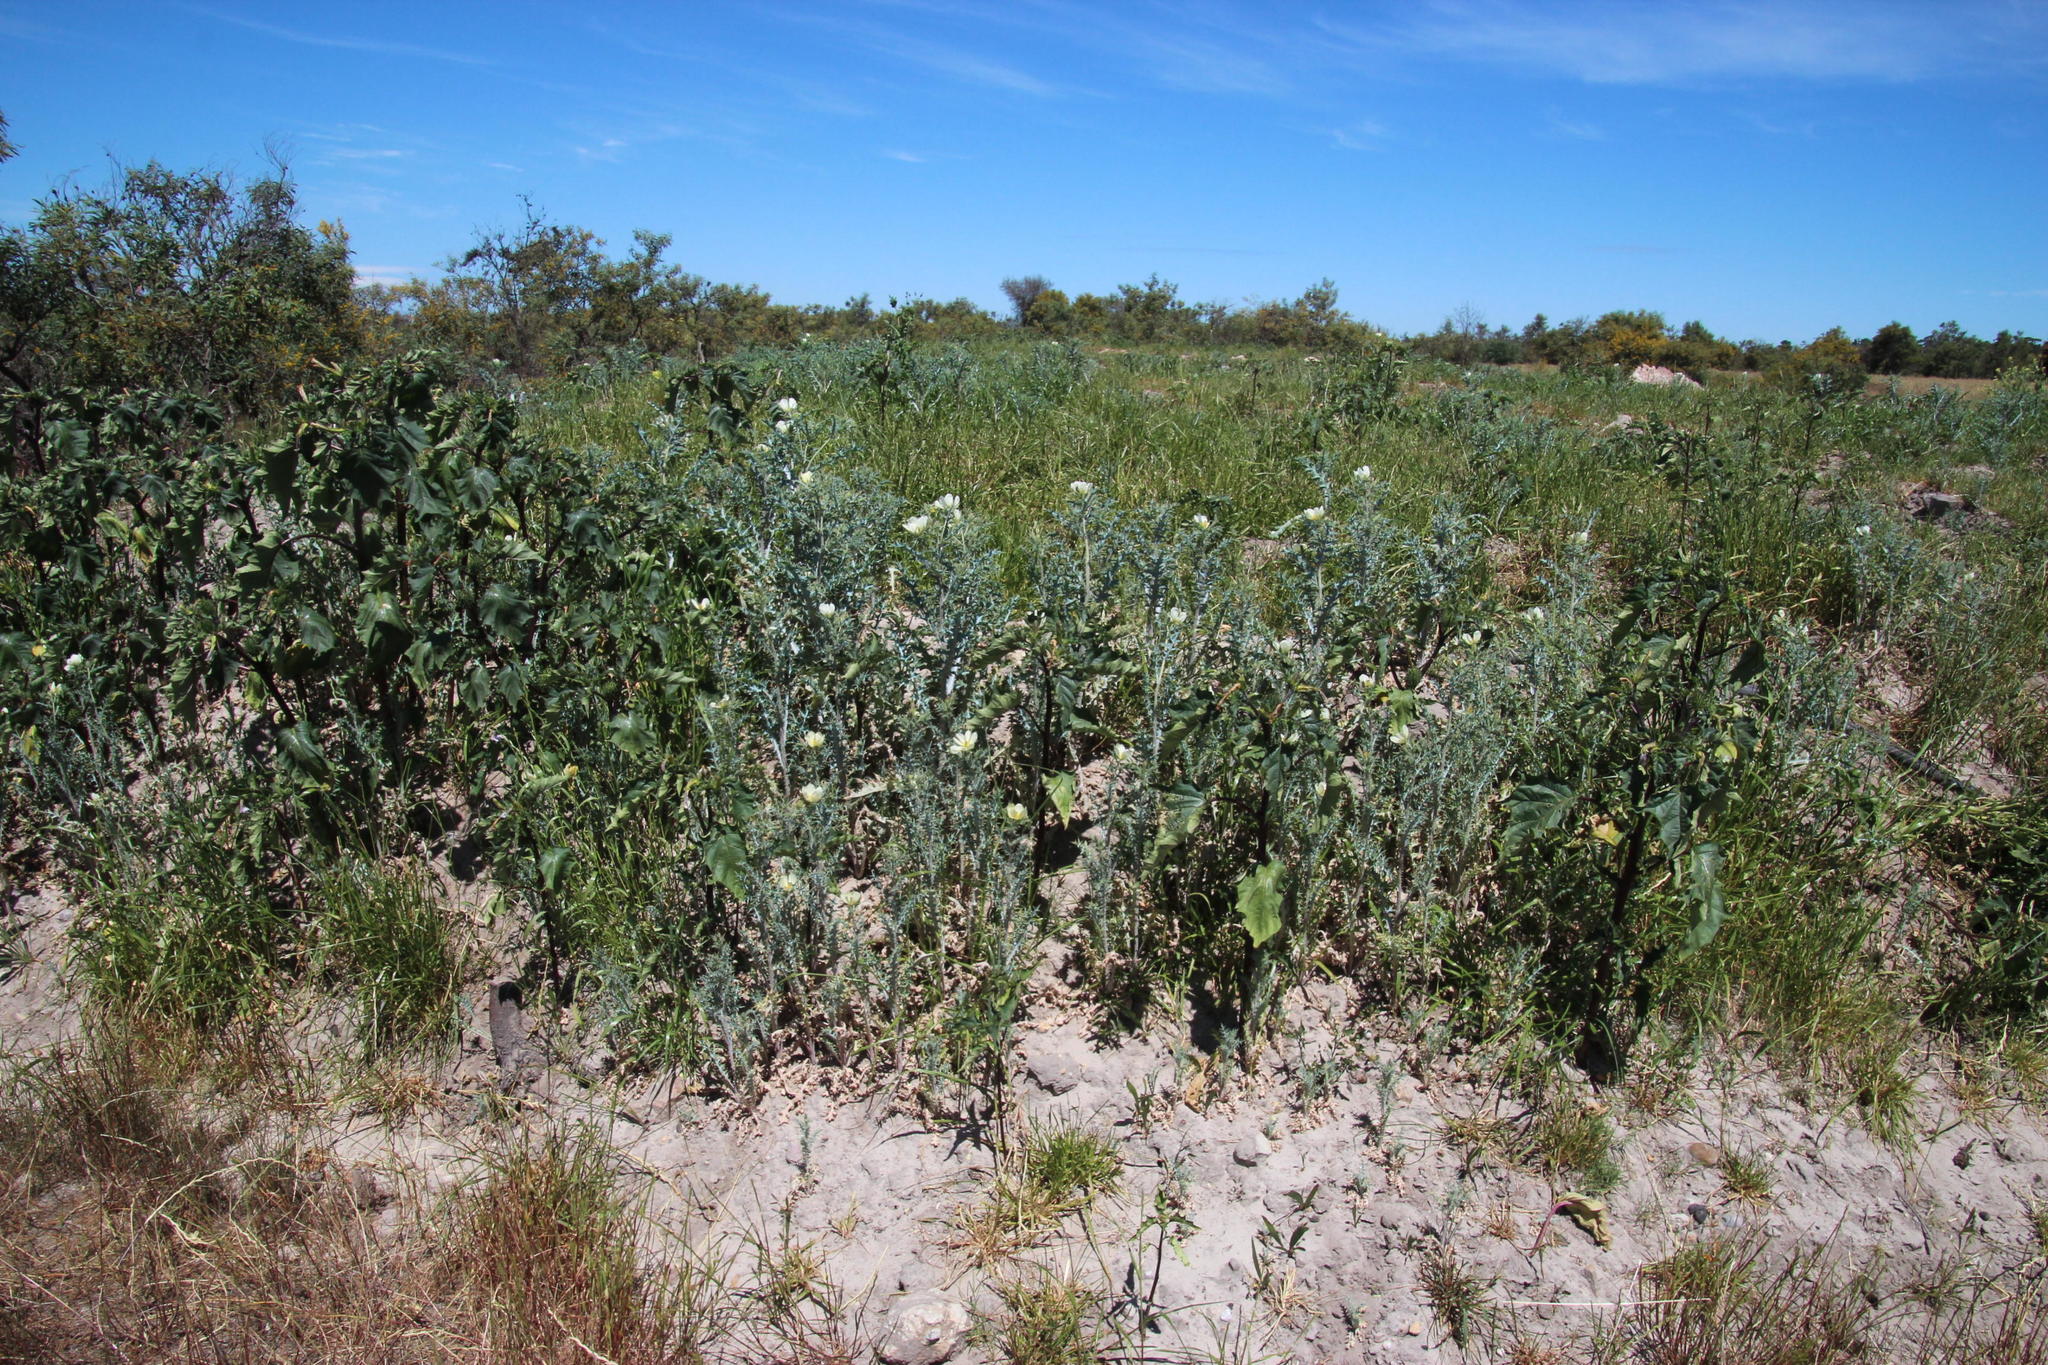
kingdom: Plantae
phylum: Tracheophyta
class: Magnoliopsida
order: Ranunculales
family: Papaveraceae
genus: Argemone
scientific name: Argemone ochroleuca
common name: White-flower mexican-poppy
